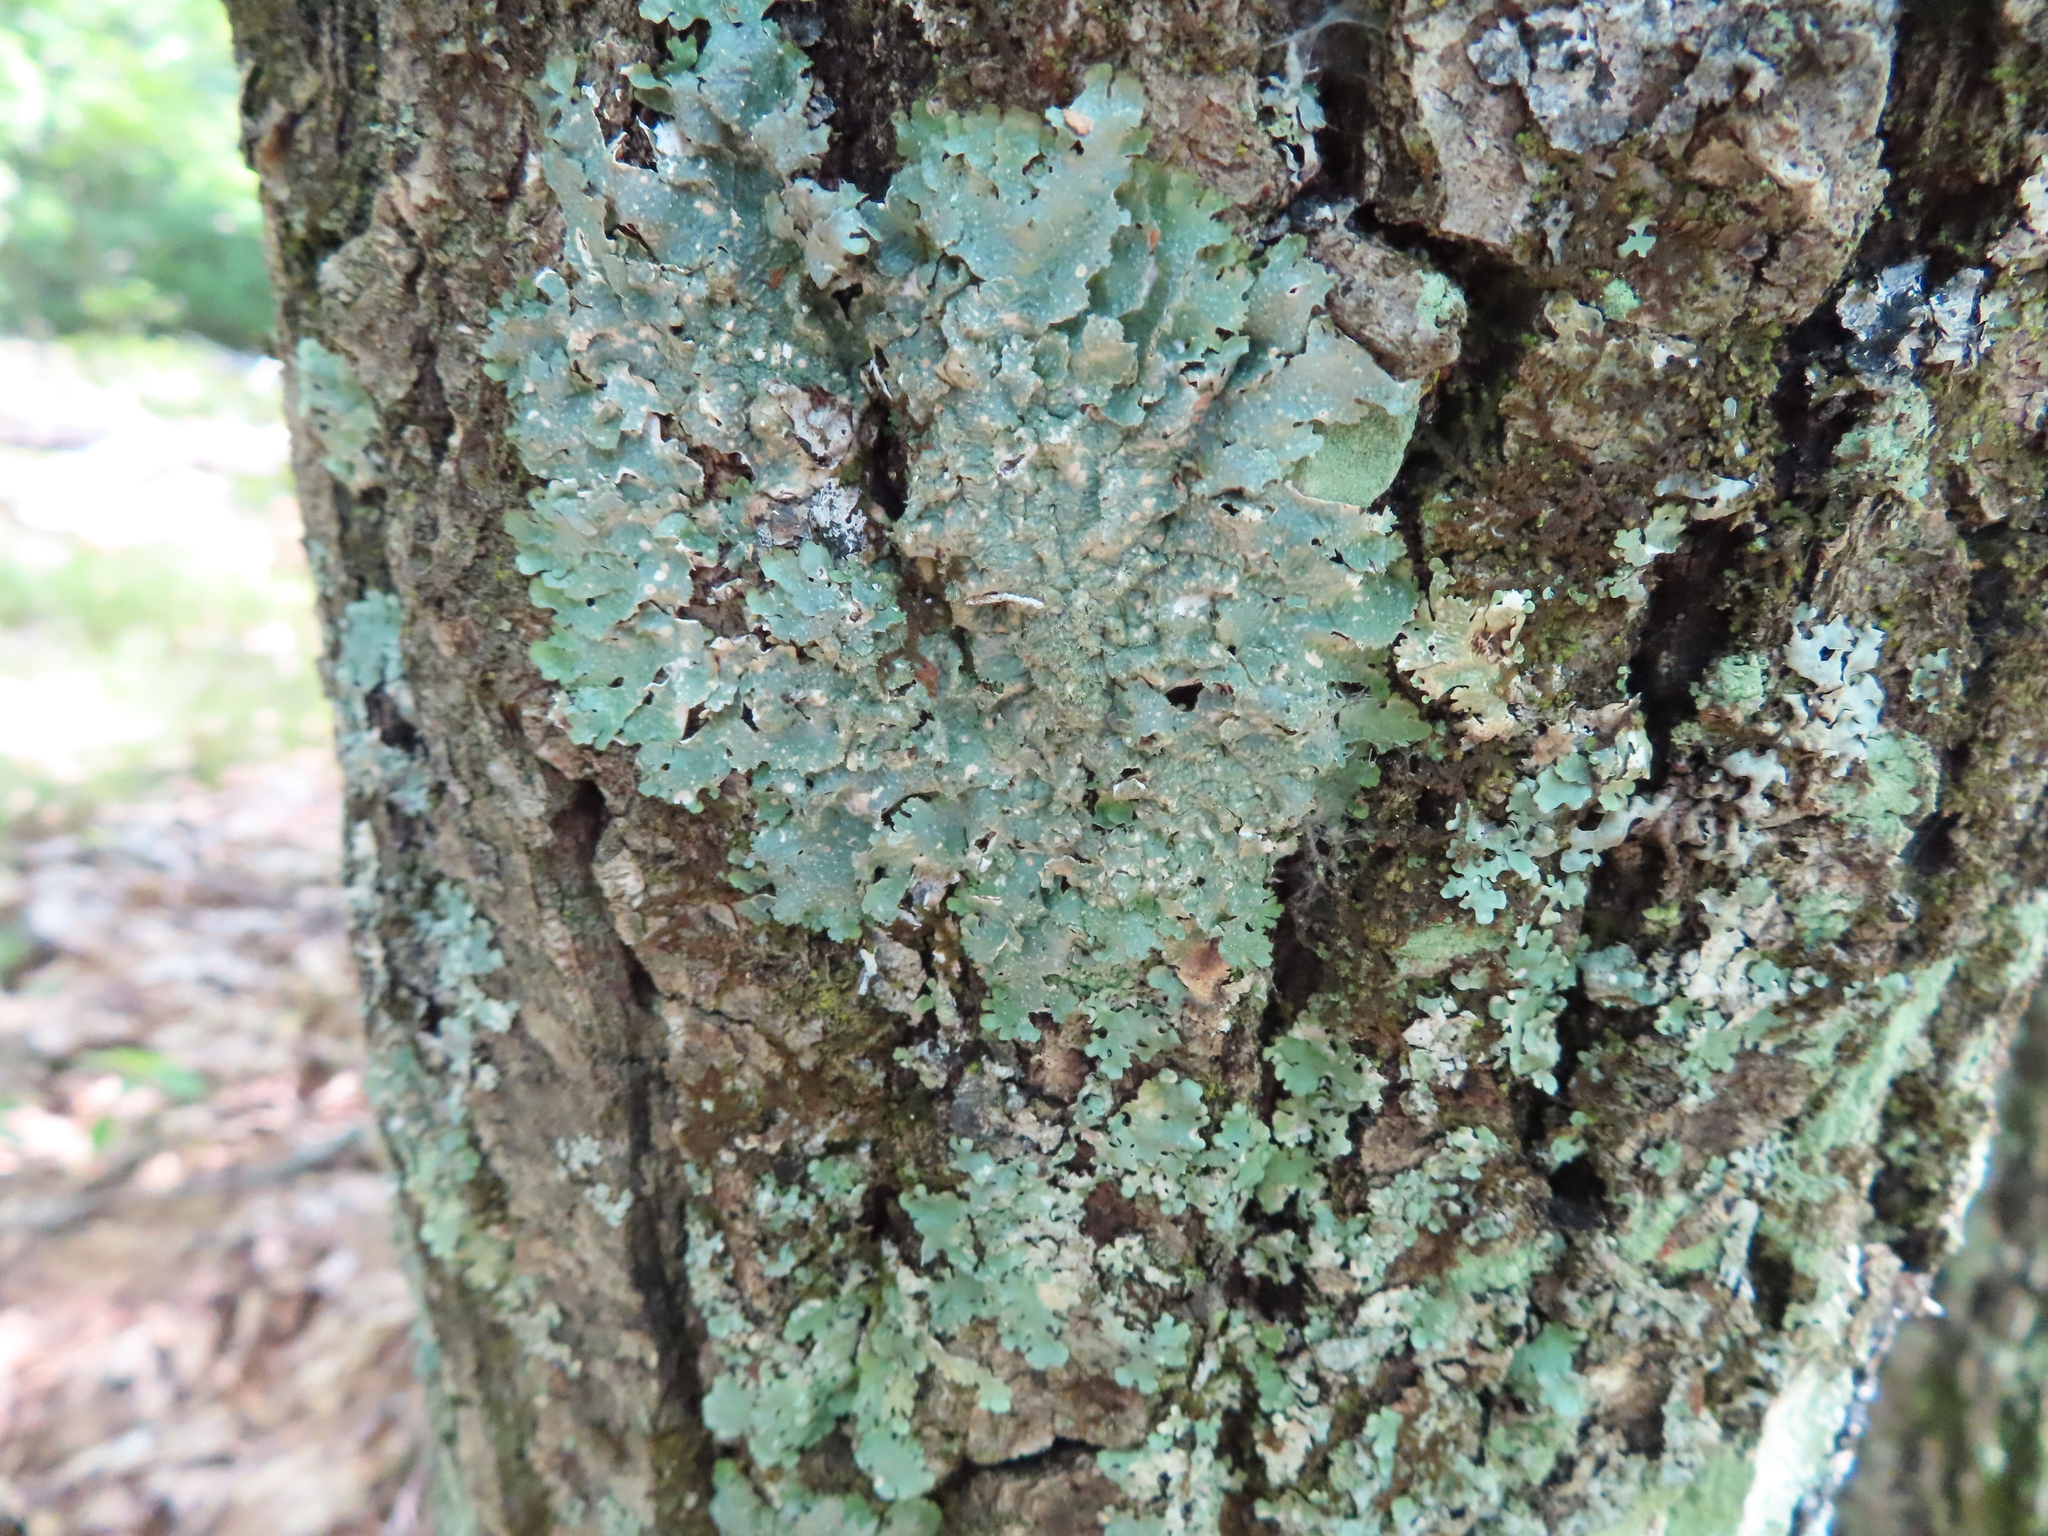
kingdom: Fungi
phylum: Ascomycota
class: Lecanoromycetes
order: Lecanorales
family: Parmeliaceae
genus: Punctelia
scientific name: Punctelia rudecta
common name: Rough speckled shield lichen
